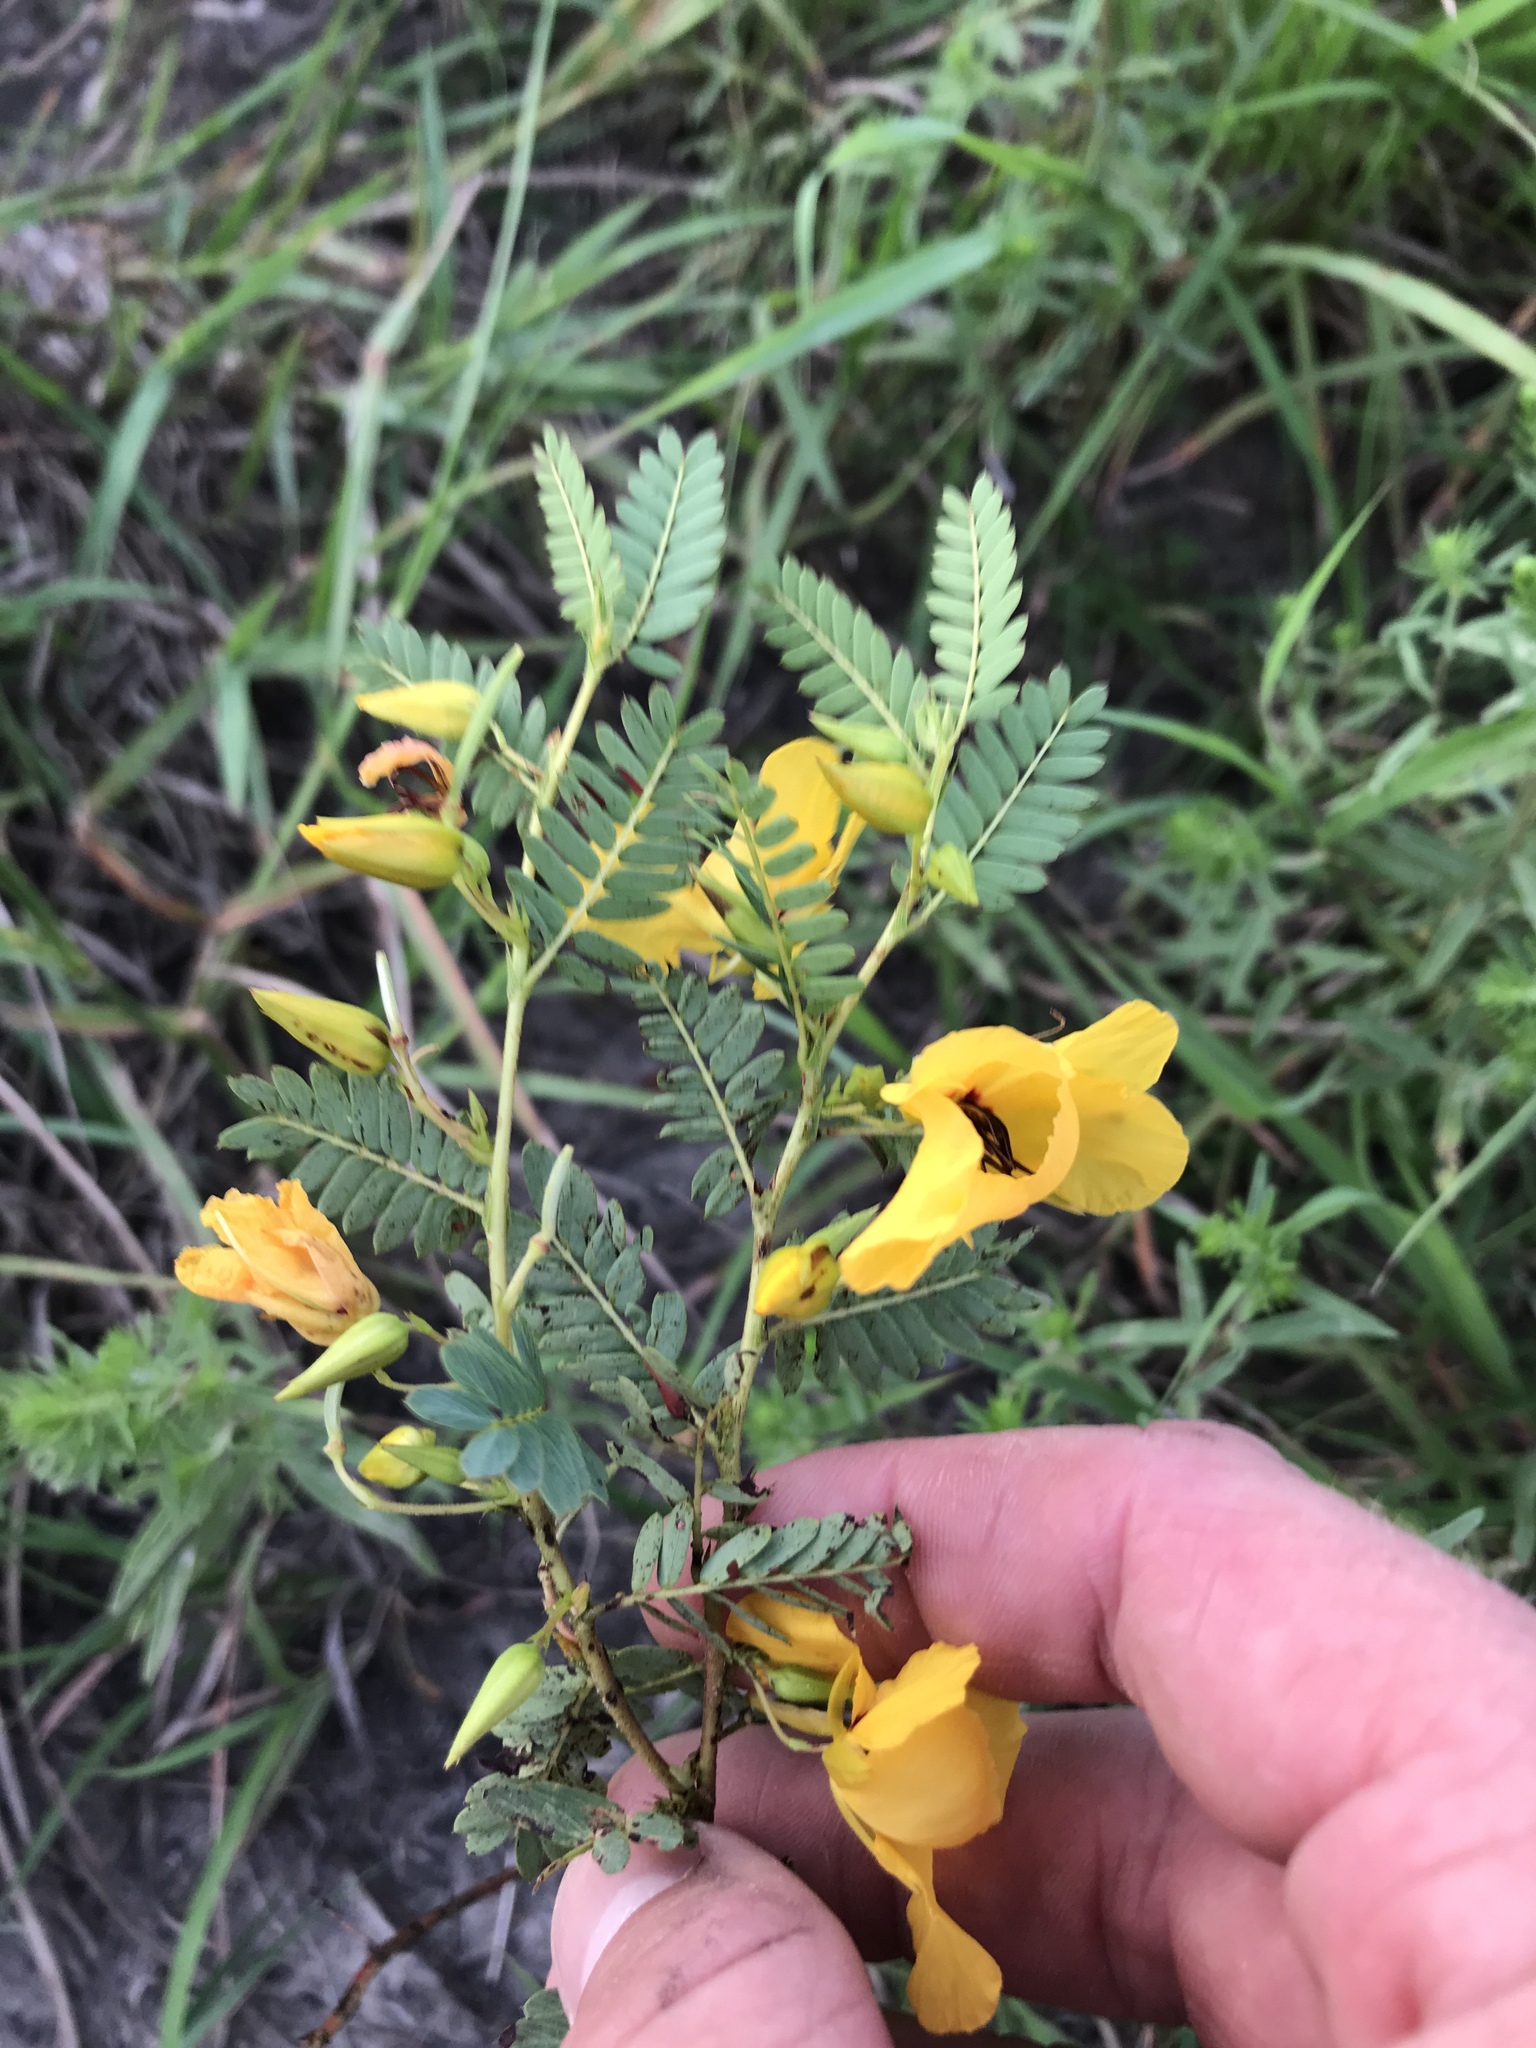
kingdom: Plantae
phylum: Tracheophyta
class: Magnoliopsida
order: Fabales
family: Fabaceae
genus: Chamaecrista
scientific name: Chamaecrista fasciculata
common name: Golden cassia
